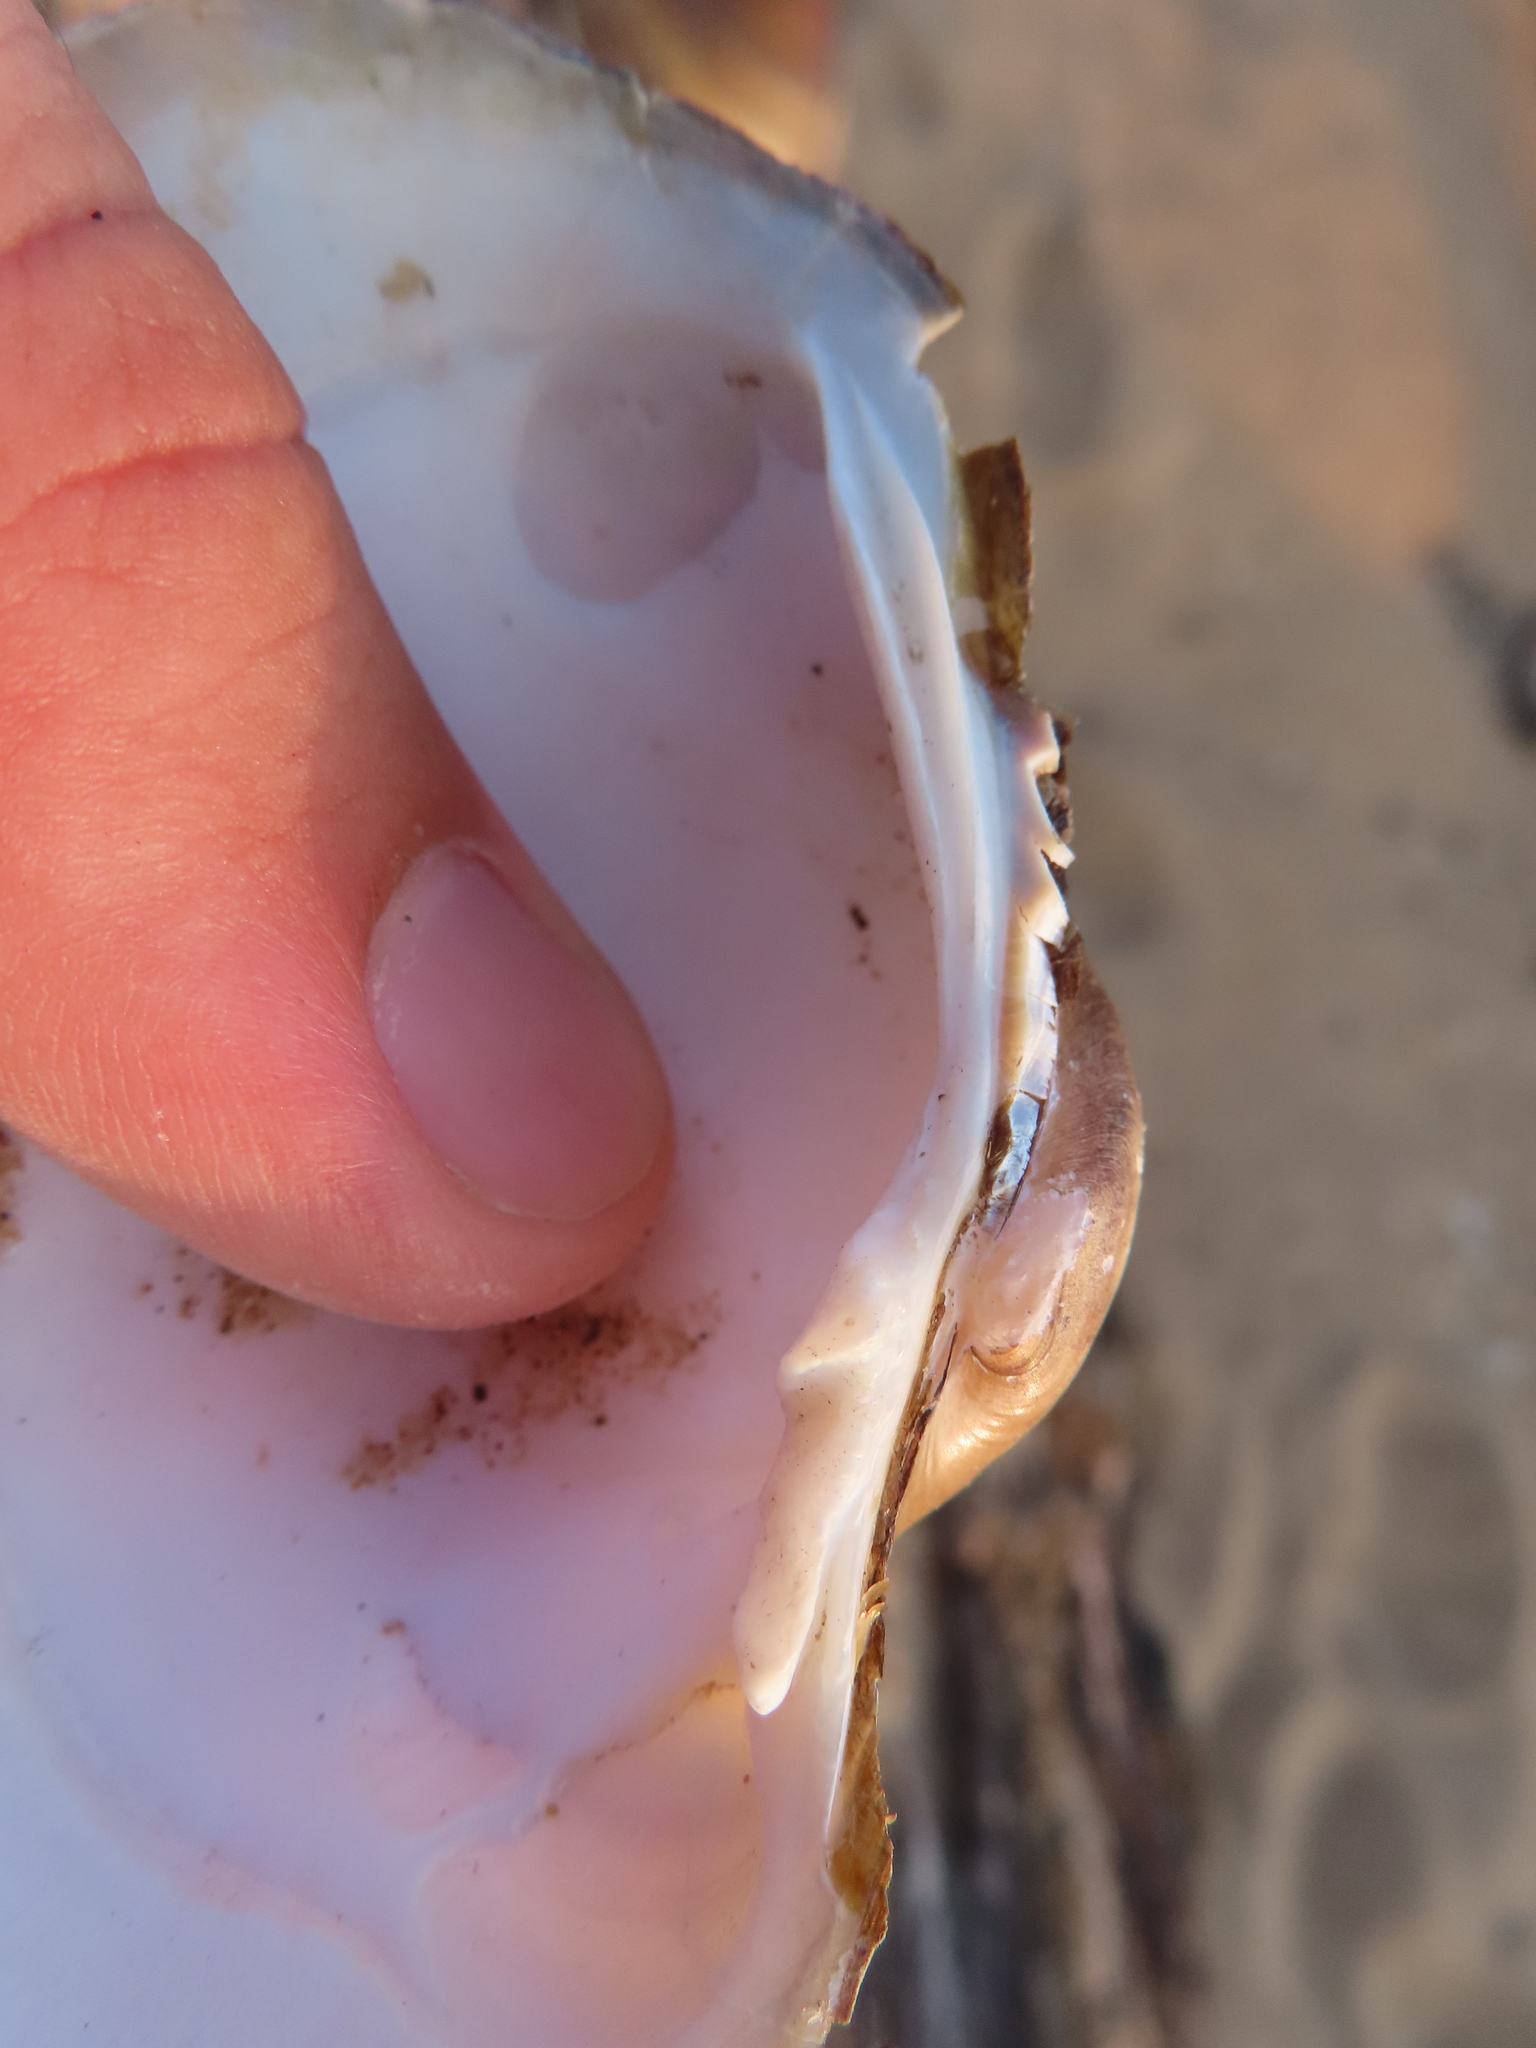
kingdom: Animalia
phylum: Mollusca
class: Bivalvia
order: Unionida
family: Unionidae
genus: Lampsilis
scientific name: Lampsilis cardium
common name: Plain pocketbook
